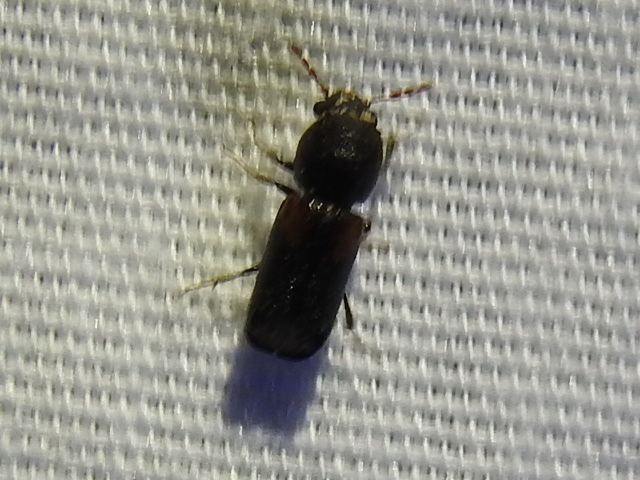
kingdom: Animalia
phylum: Arthropoda
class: Insecta
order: Coleoptera
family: Bostrichidae
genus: Xylobiops
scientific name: Xylobiops basilaris
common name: Red-shouldered bostrichid
